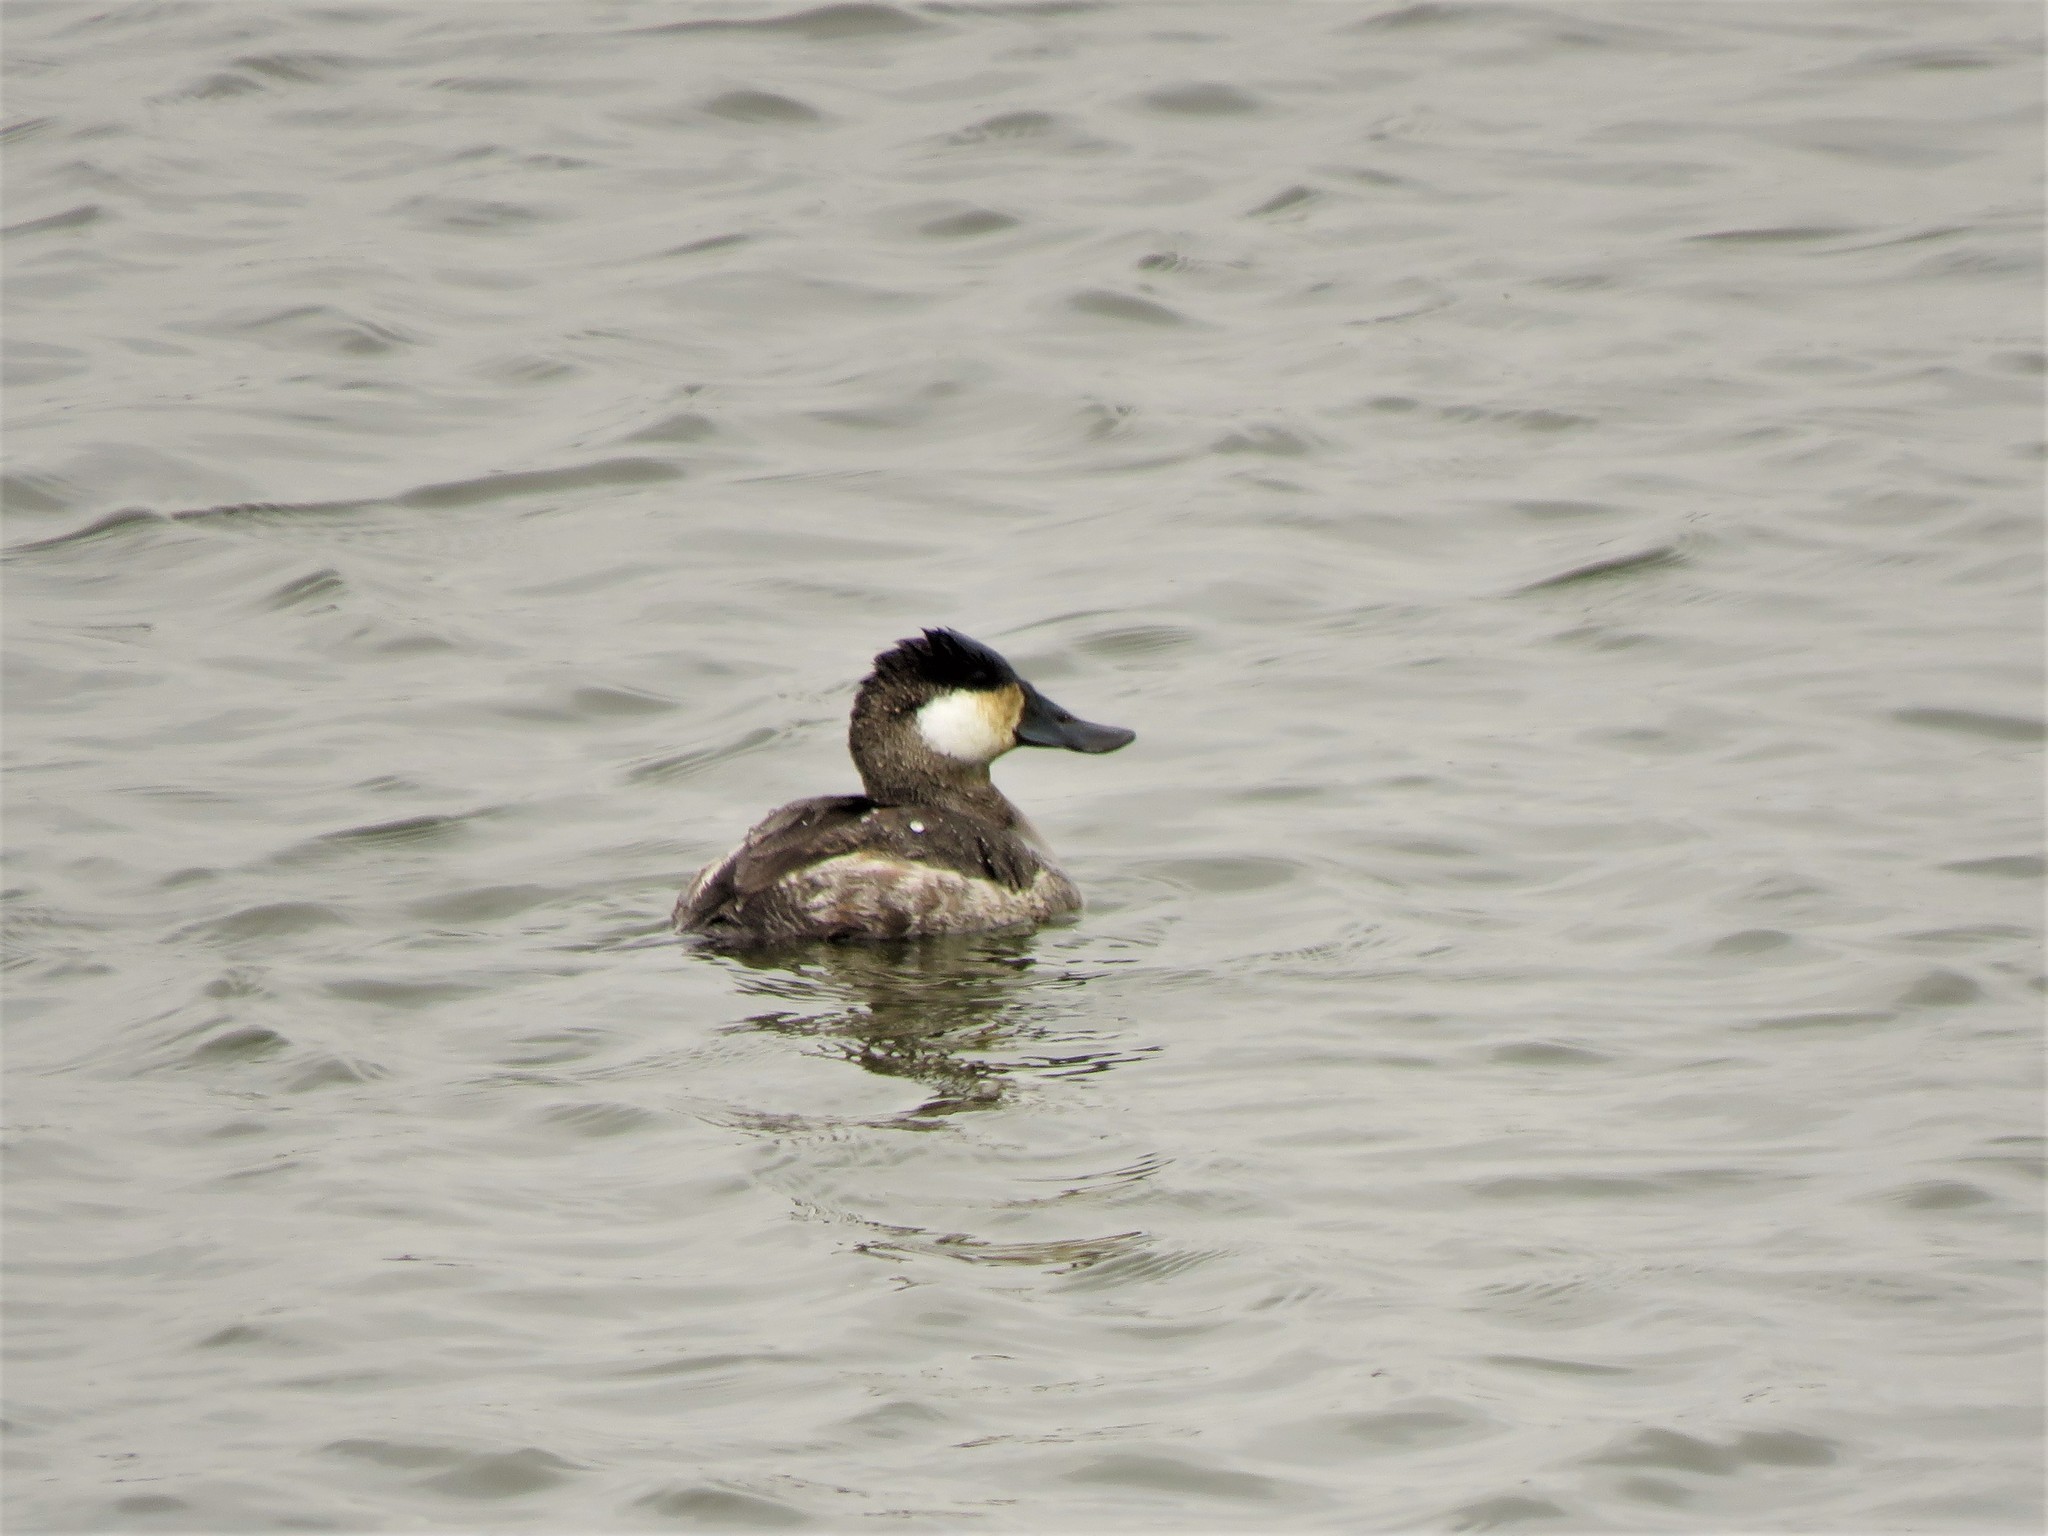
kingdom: Animalia
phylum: Chordata
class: Aves
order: Anseriformes
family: Anatidae
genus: Oxyura
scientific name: Oxyura jamaicensis
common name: Ruddy duck
